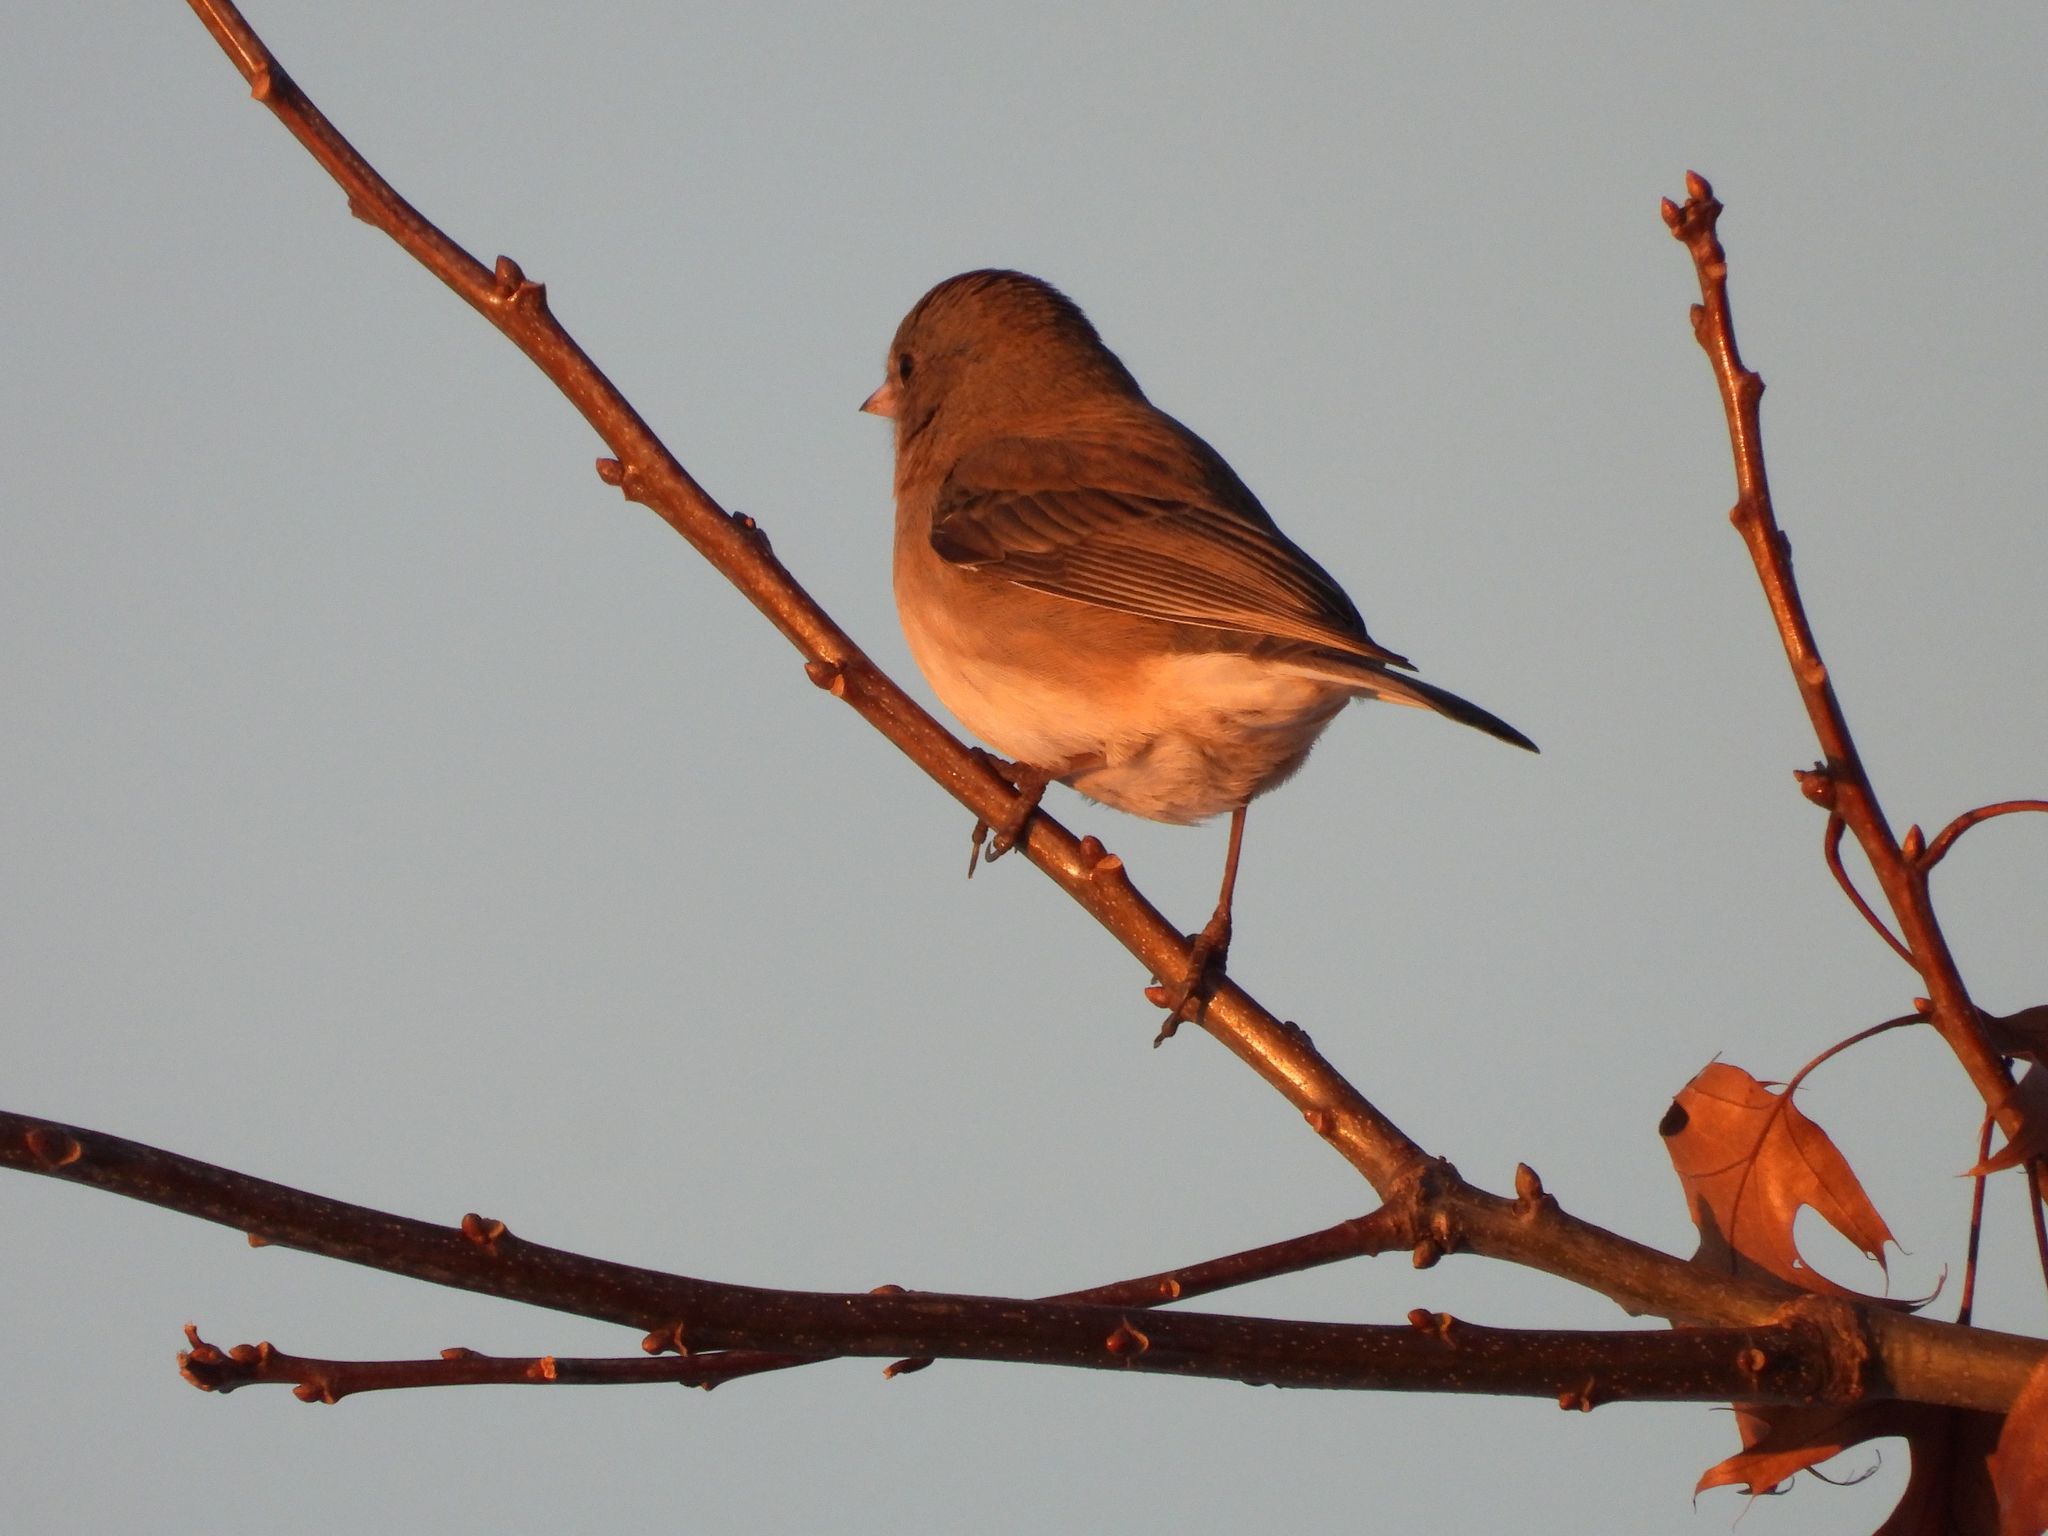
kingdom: Animalia
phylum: Chordata
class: Aves
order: Passeriformes
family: Passerellidae
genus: Junco
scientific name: Junco hyemalis
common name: Dark-eyed junco
